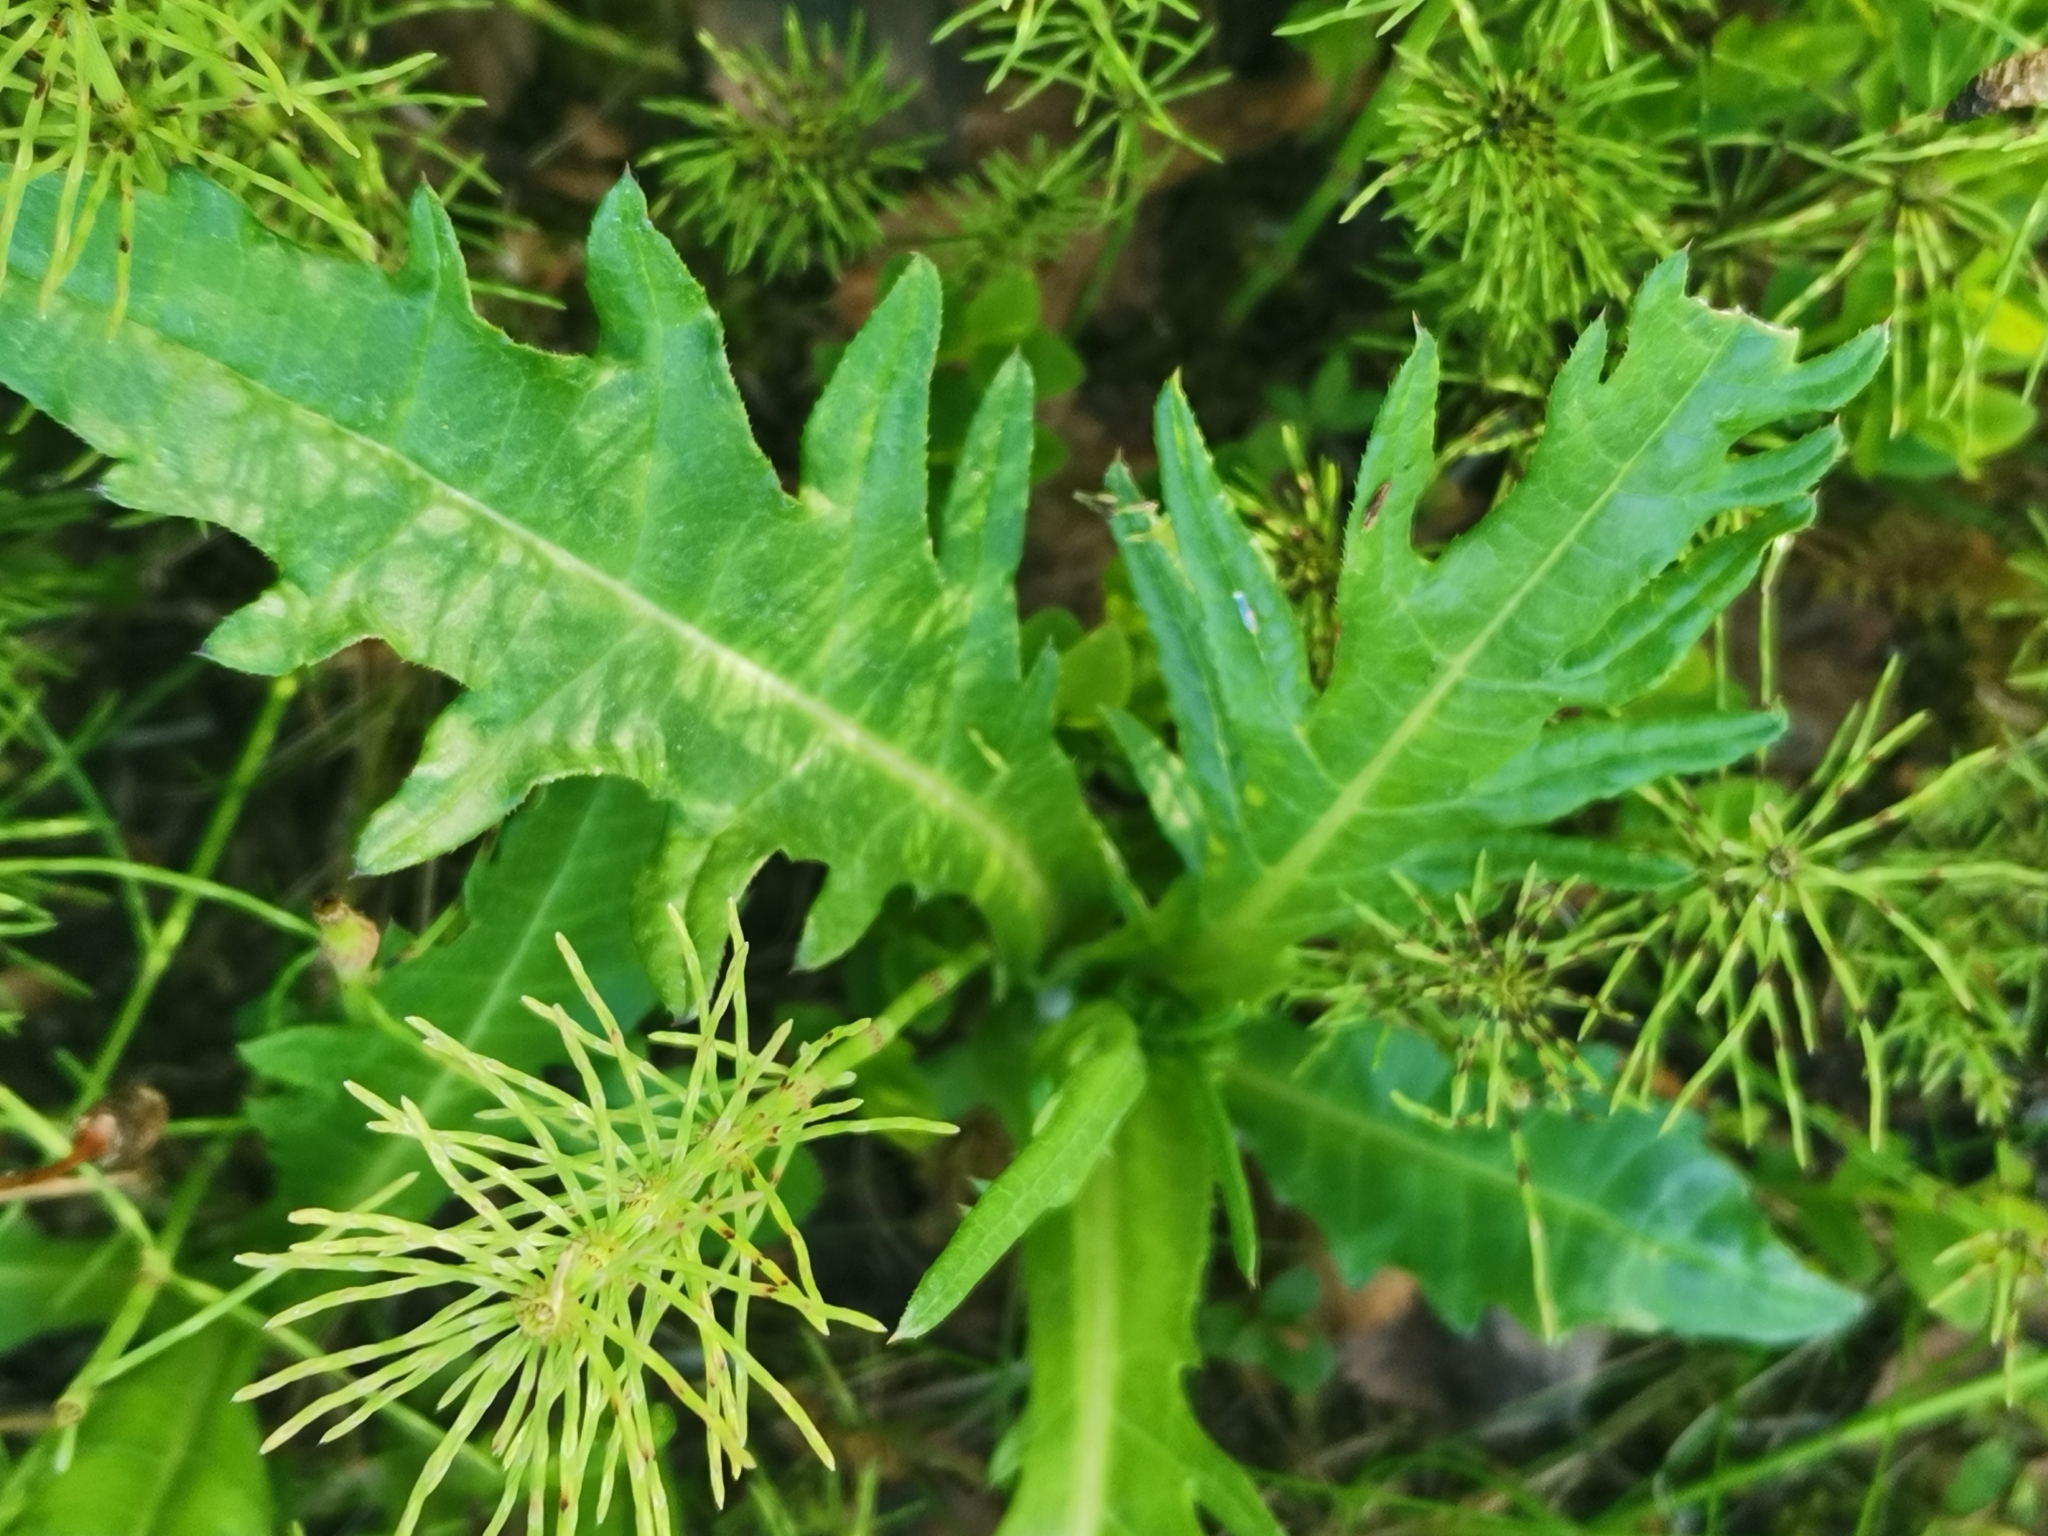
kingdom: Plantae
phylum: Tracheophyta
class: Magnoliopsida
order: Asterales
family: Asteraceae
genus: Cirsium
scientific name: Cirsium heterophyllum
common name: Melancholy thistle
